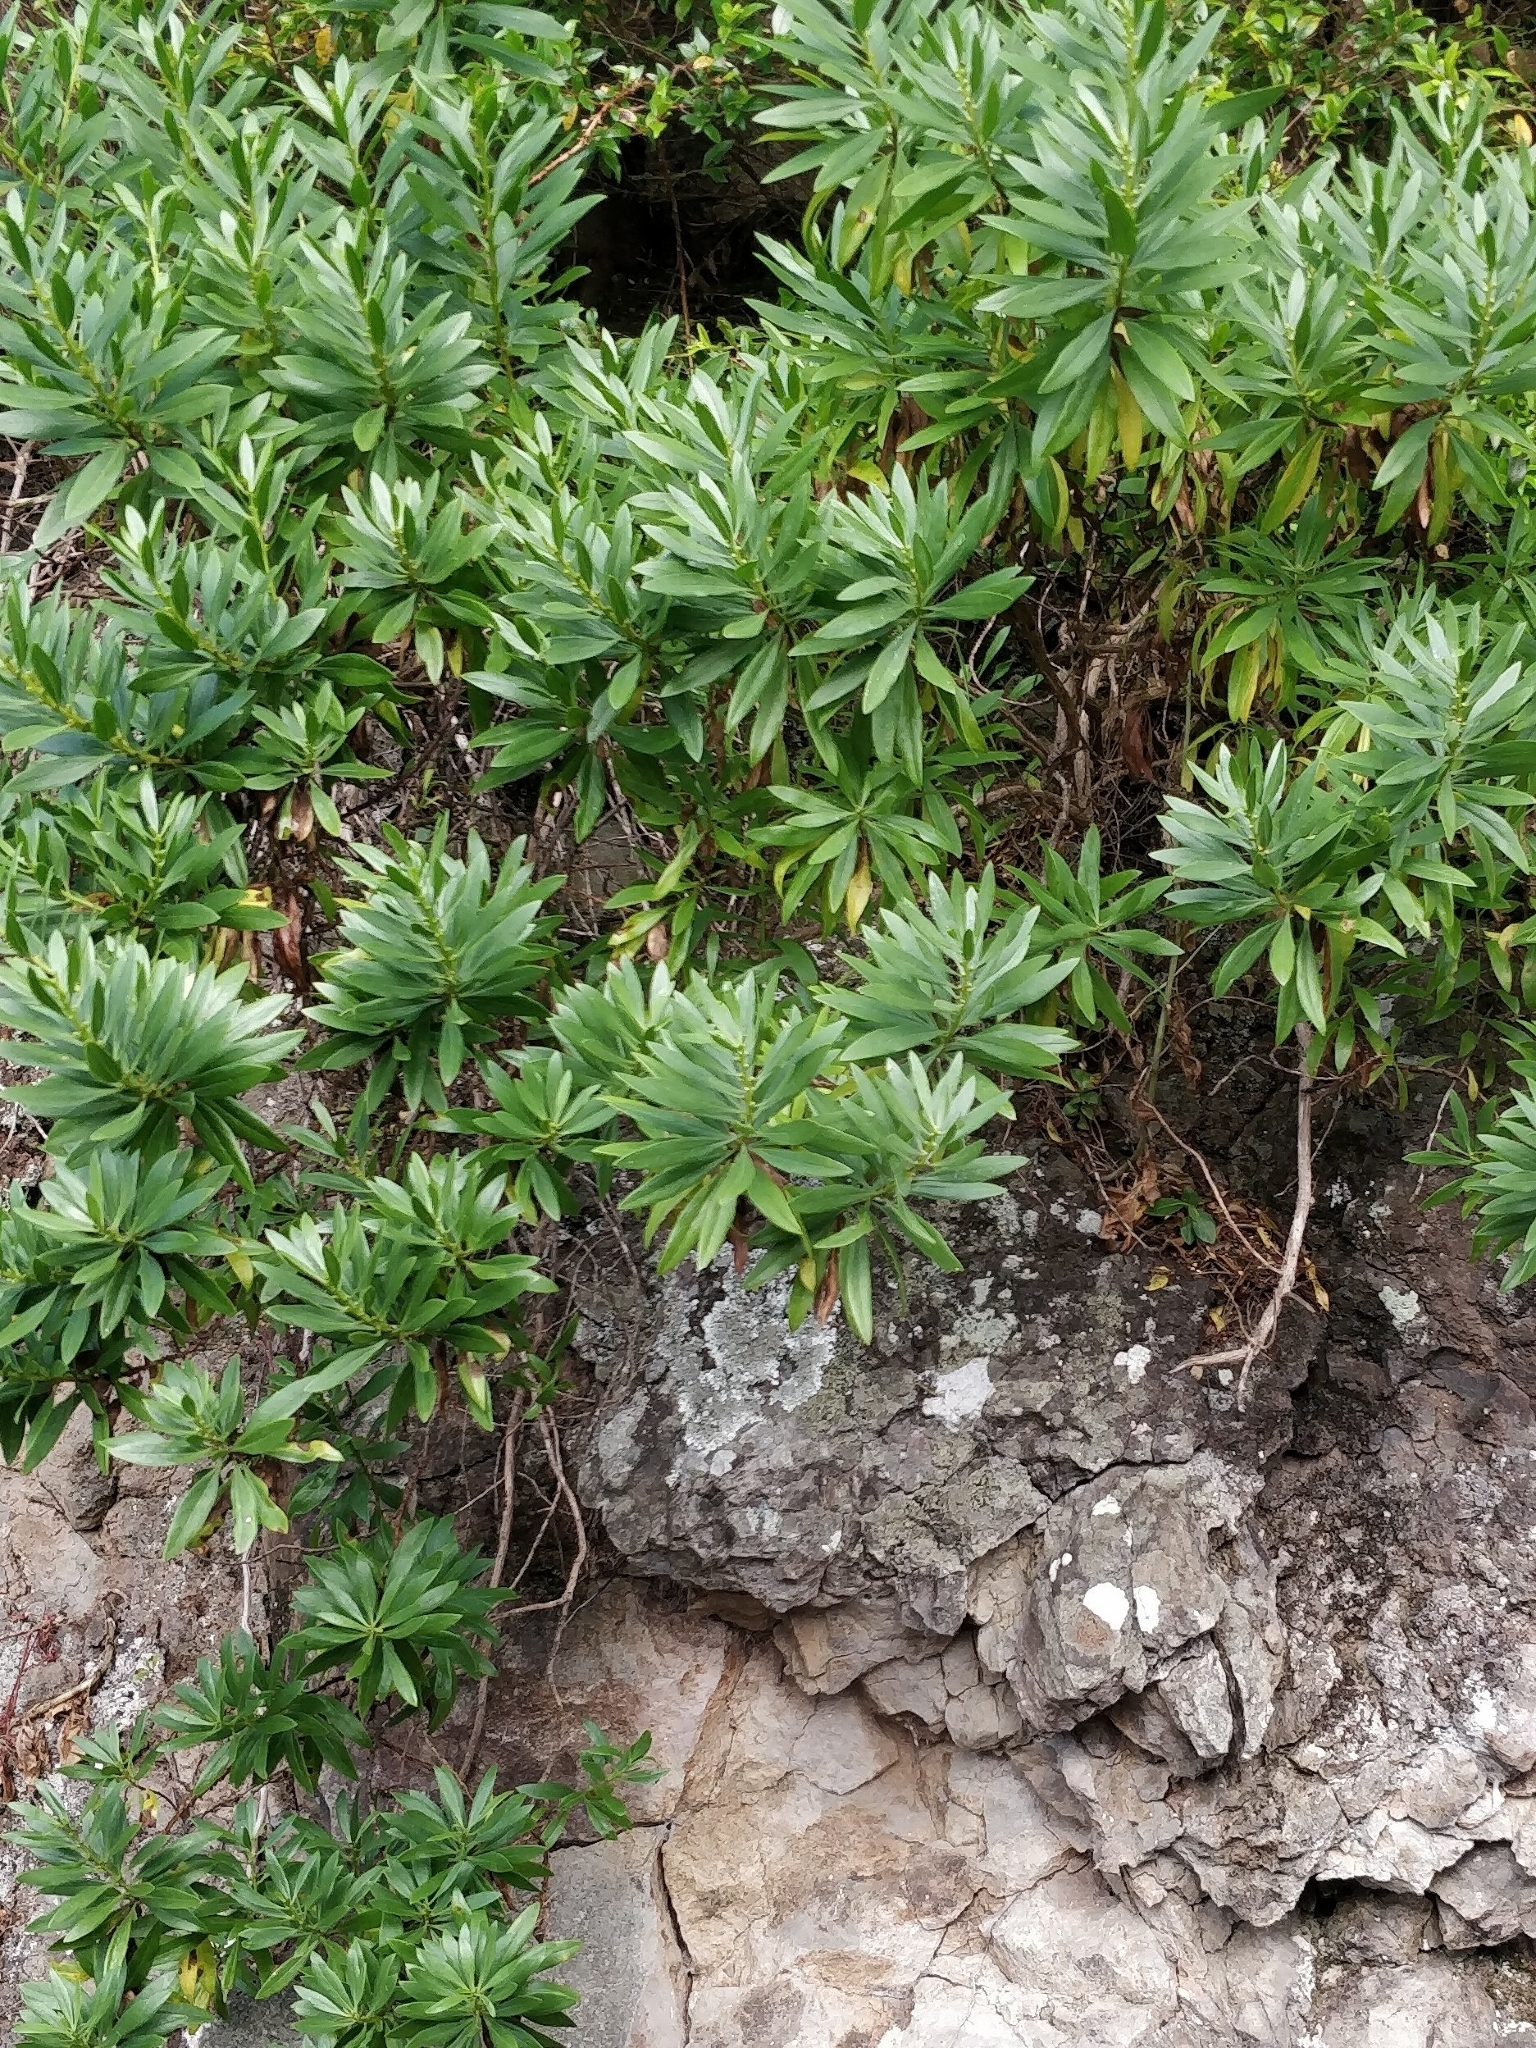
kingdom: Plantae
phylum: Tracheophyta
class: Magnoliopsida
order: Lamiales
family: Plantaginaceae
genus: Globularia
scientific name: Globularia salicina
